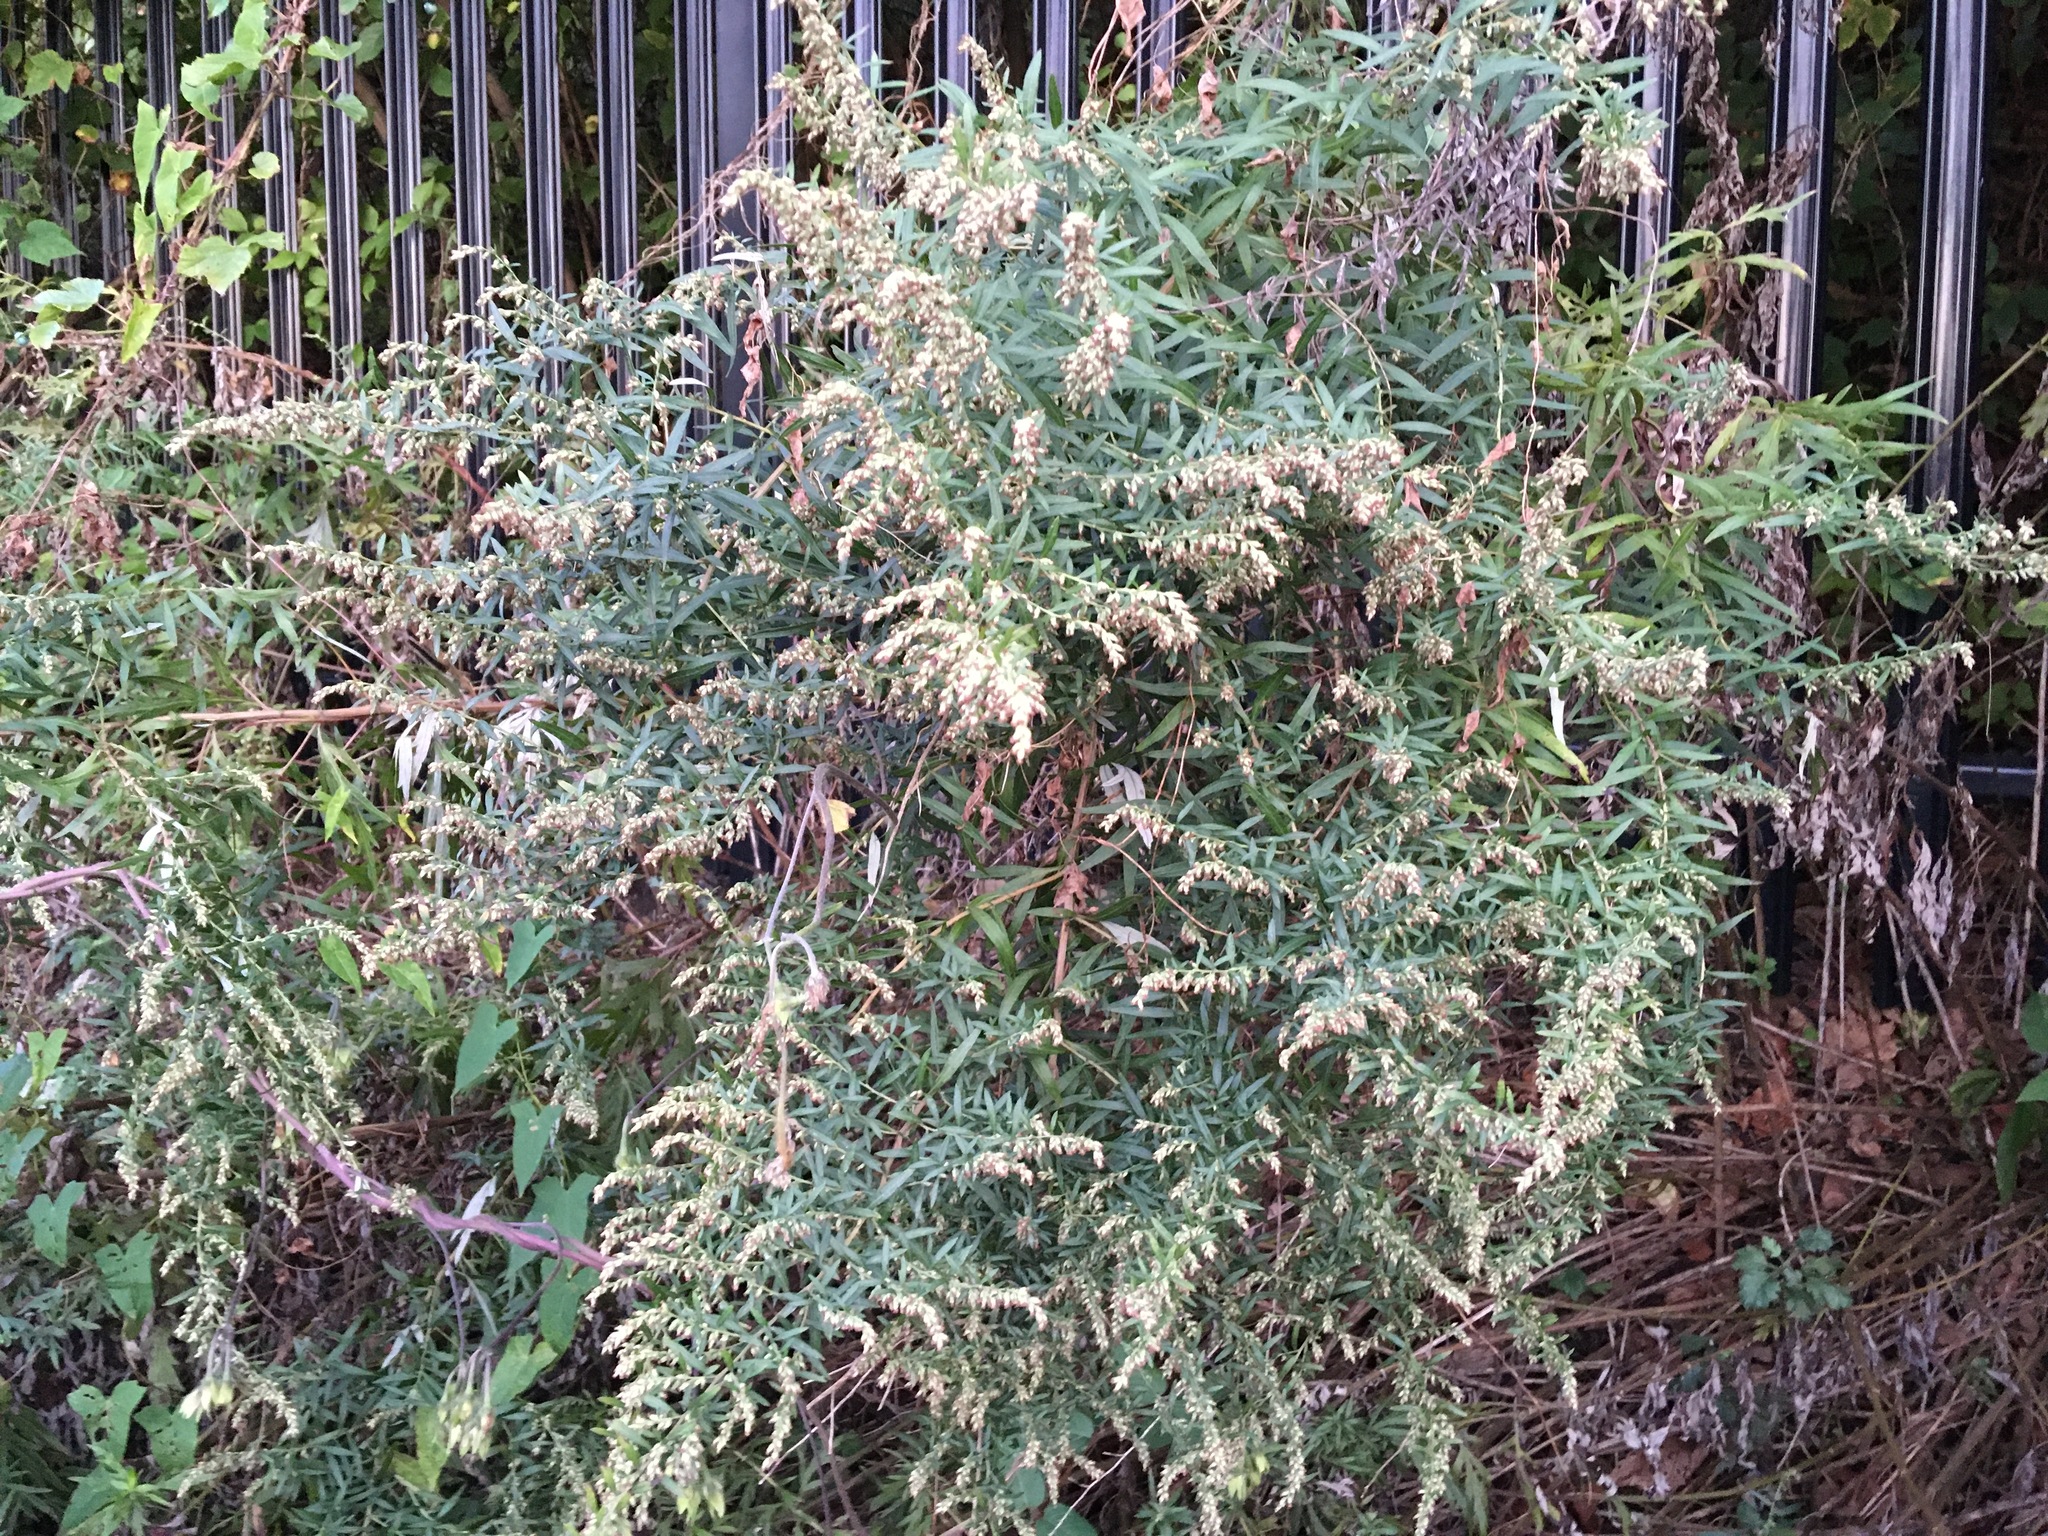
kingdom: Plantae
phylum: Tracheophyta
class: Magnoliopsida
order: Asterales
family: Asteraceae
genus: Artemisia
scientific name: Artemisia vulgaris
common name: Mugwort
